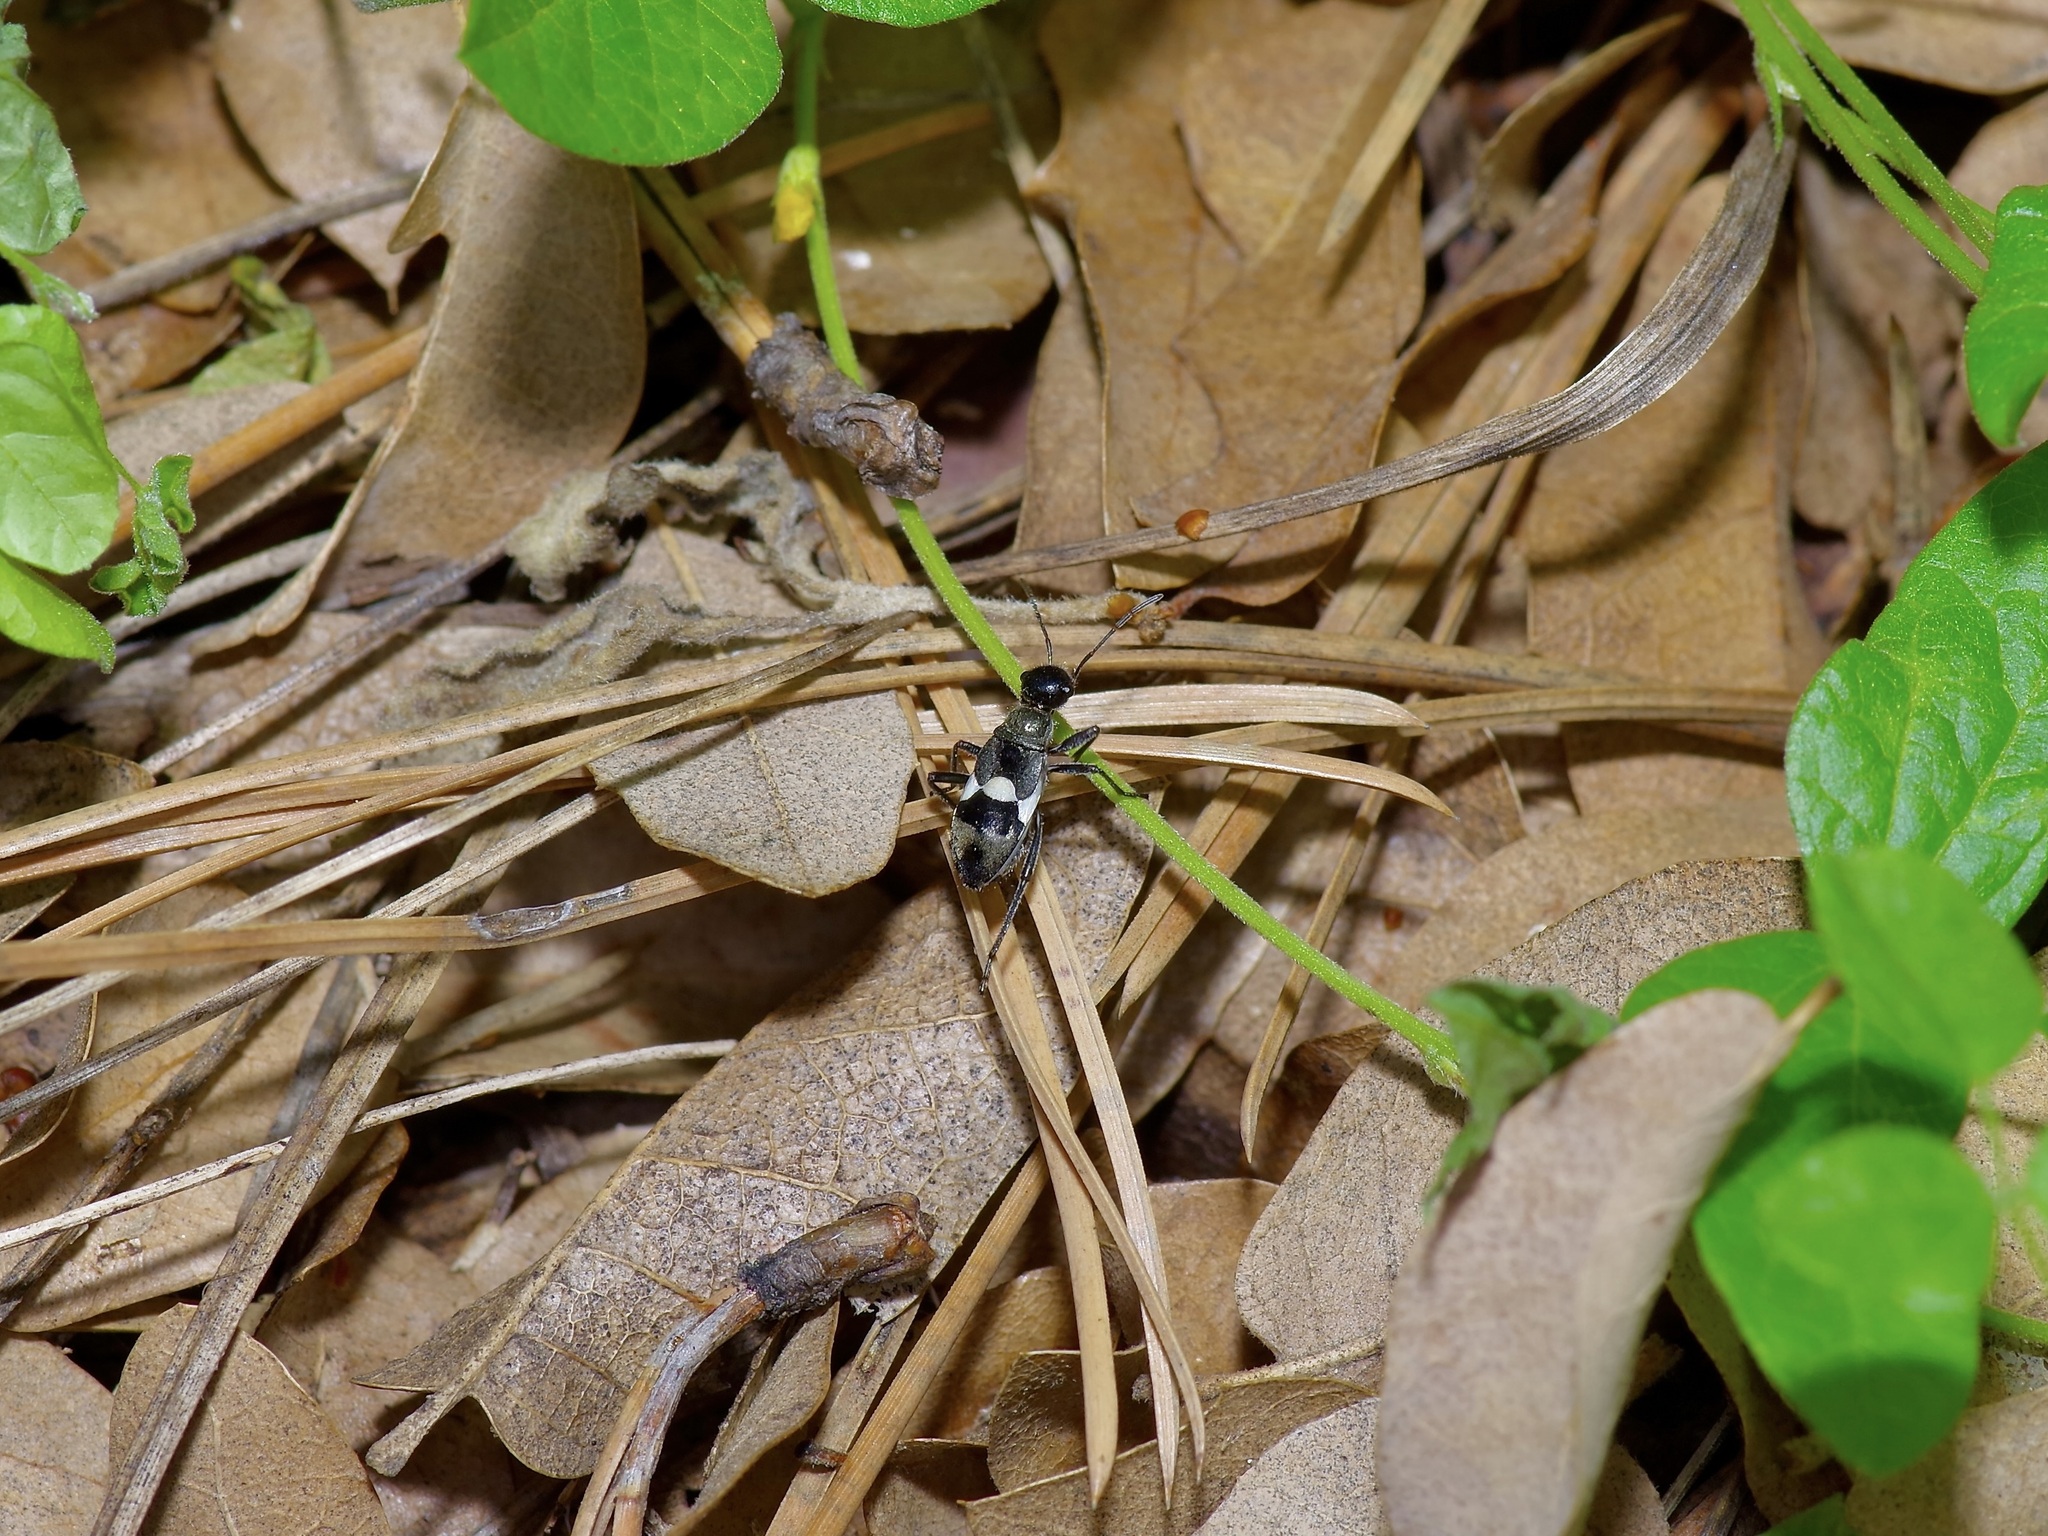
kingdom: Animalia
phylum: Arthropoda
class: Insecta
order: Hemiptera
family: Largidae
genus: Arhaphe
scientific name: Arhaphe arguta
